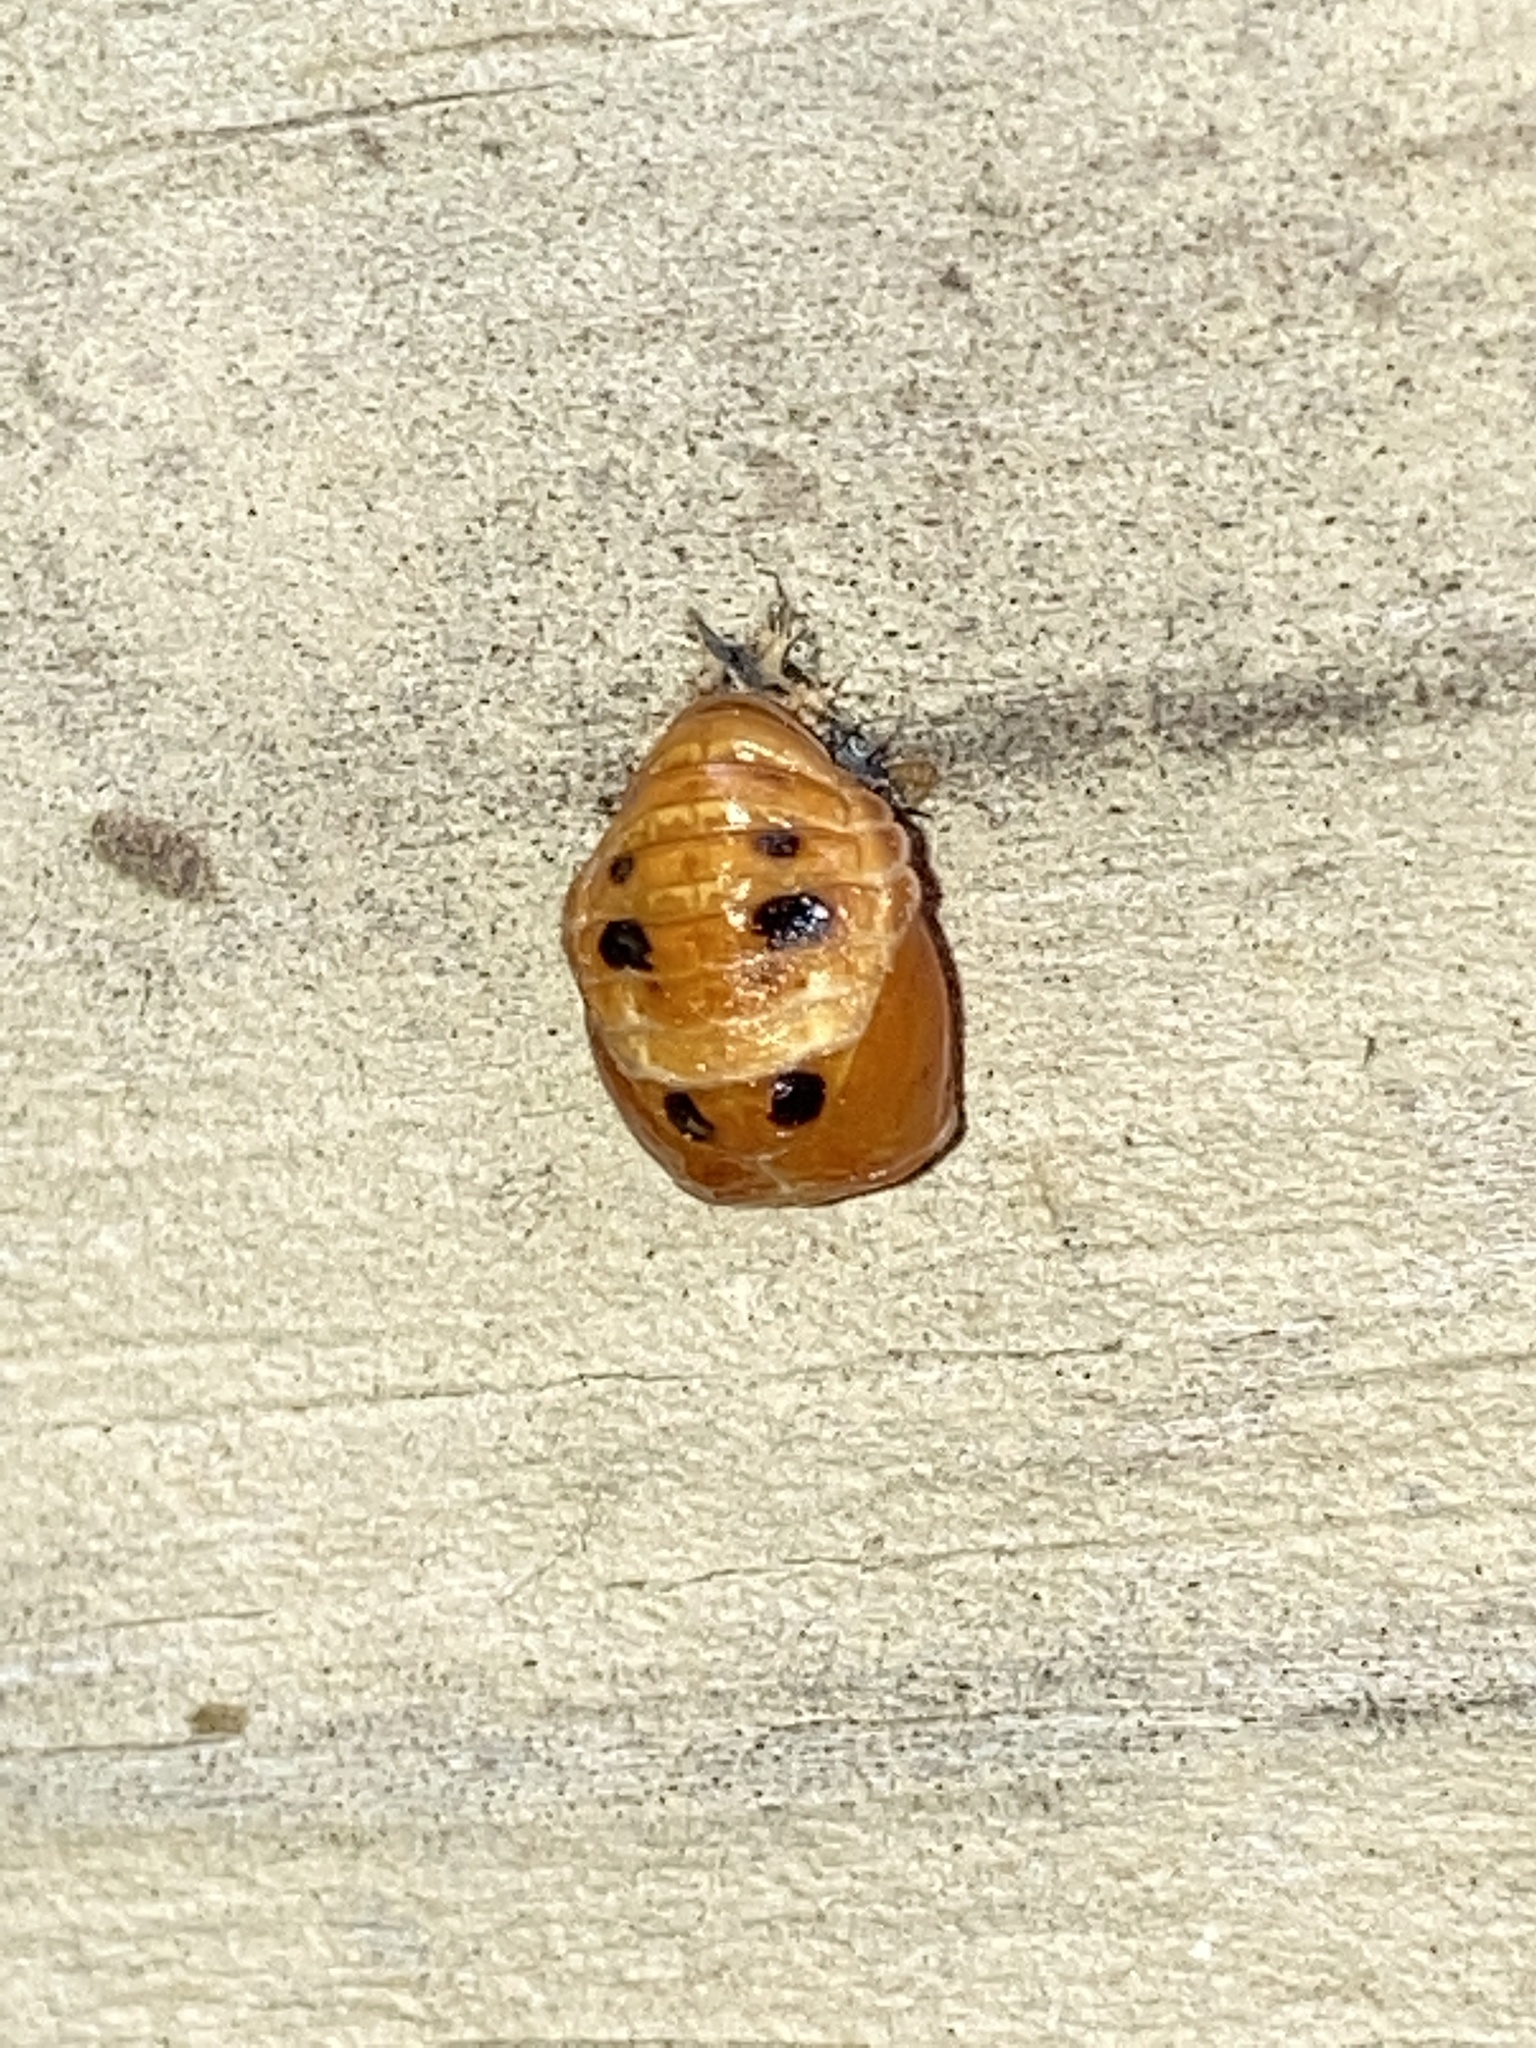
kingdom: Animalia
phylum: Arthropoda
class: Insecta
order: Coleoptera
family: Coccinellidae
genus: Harmonia
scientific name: Harmonia axyridis
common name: Harlequin ladybird
